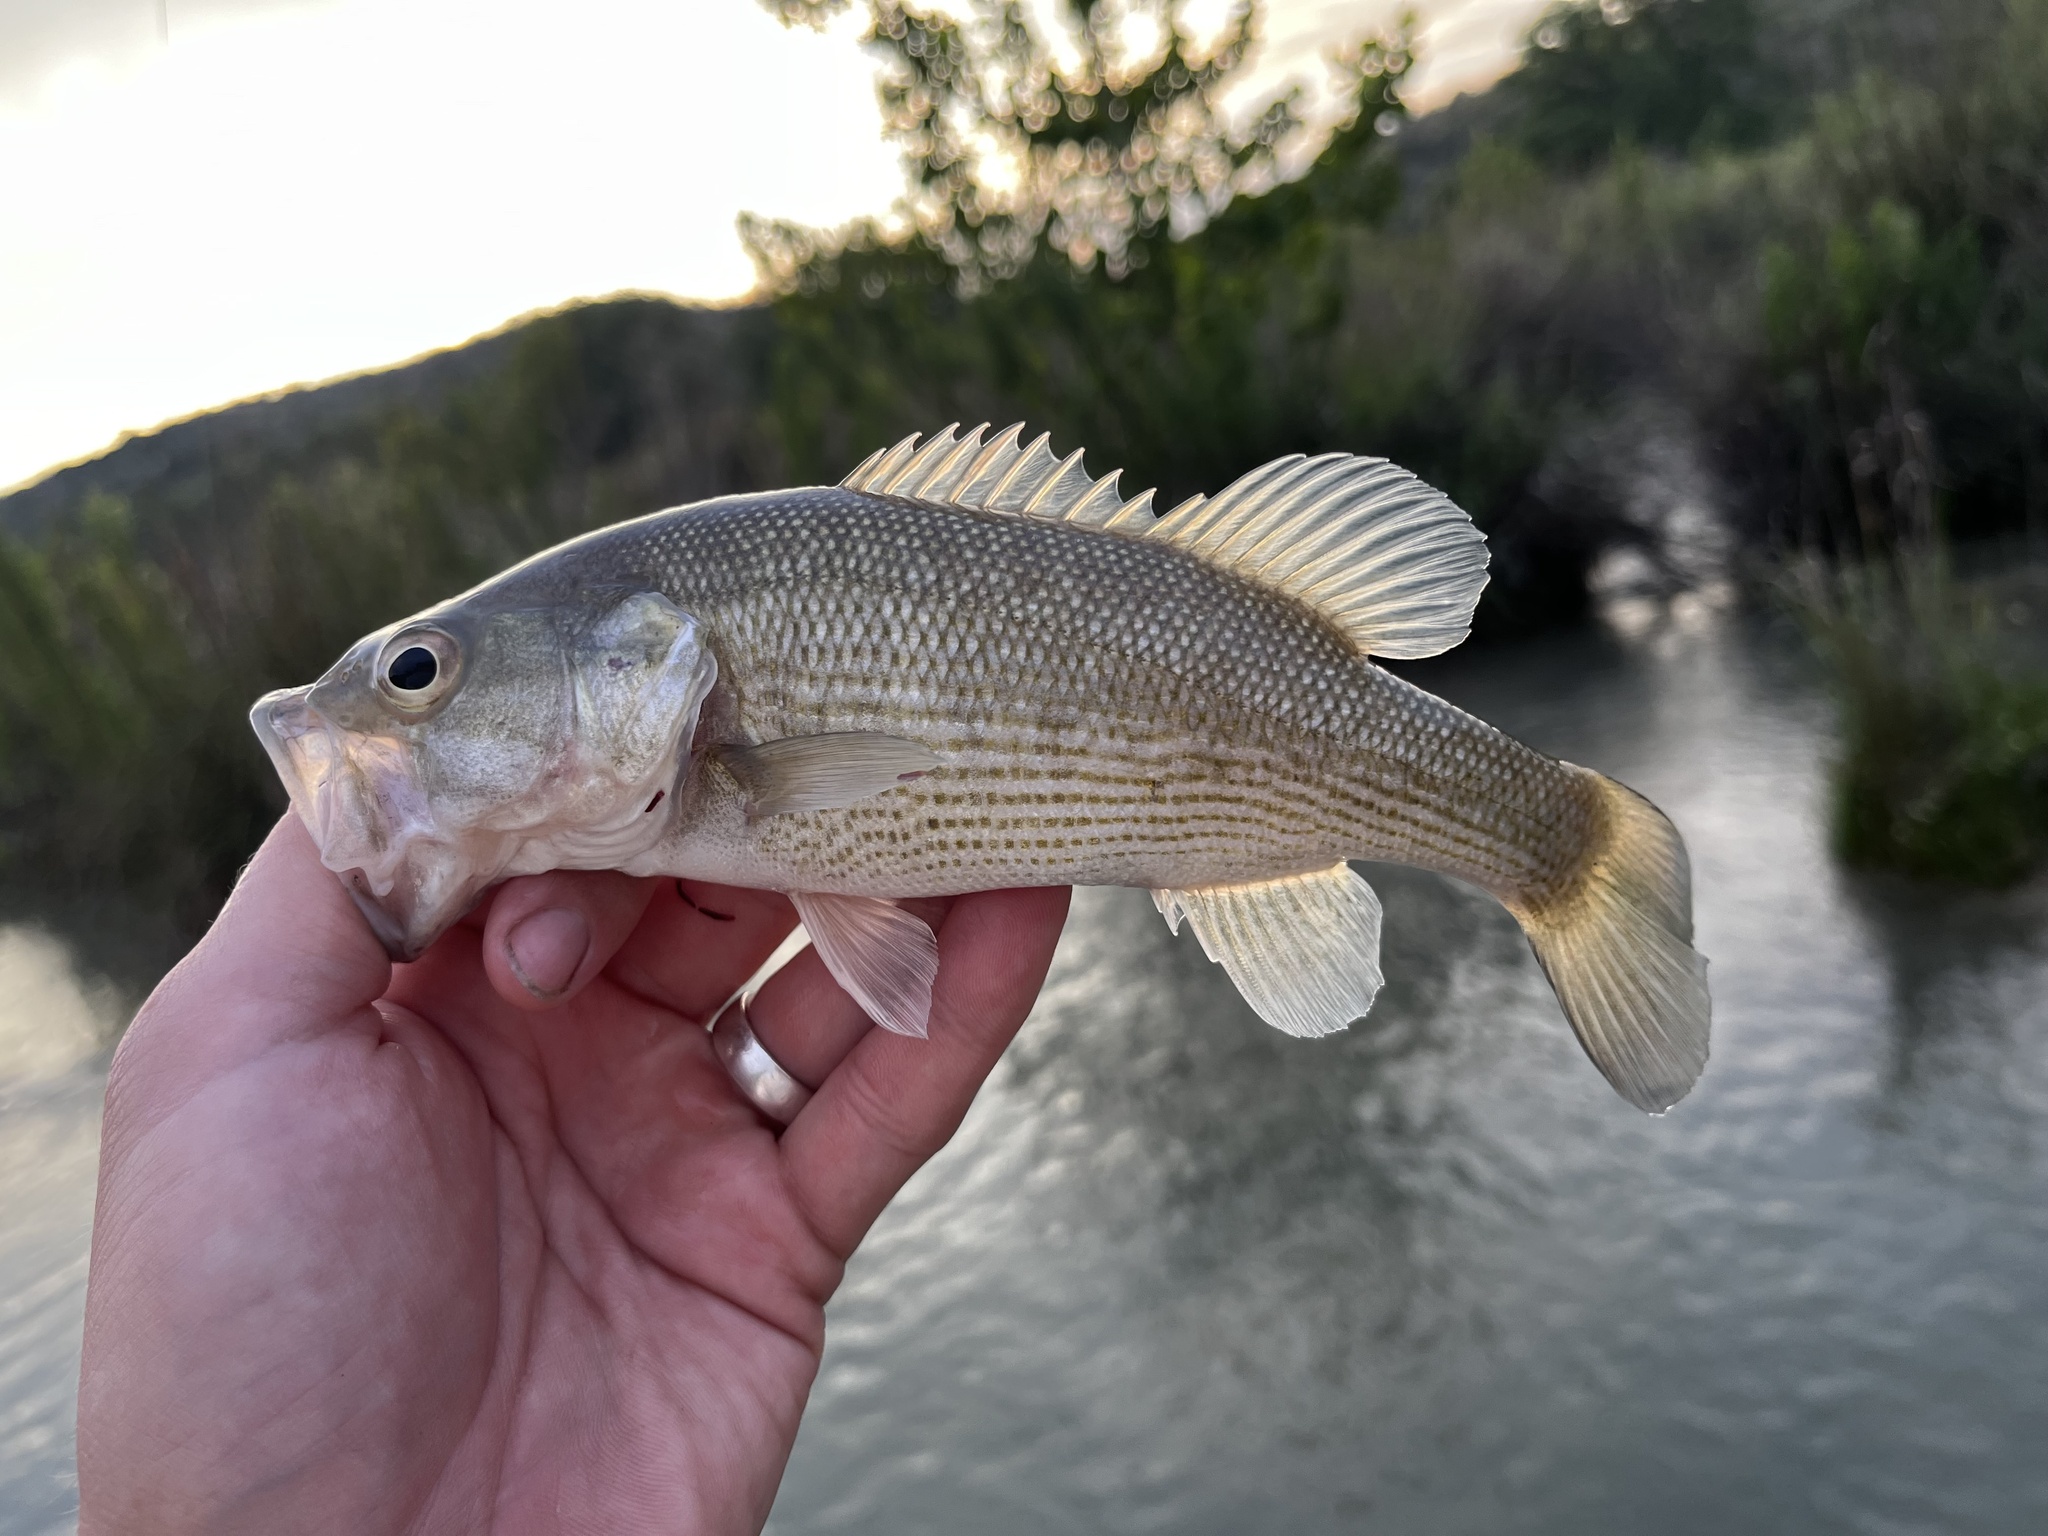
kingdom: Animalia
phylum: Chordata
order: Perciformes
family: Centrarchidae
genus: Micropterus
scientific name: Micropterus treculii
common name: Guadalupe bass
